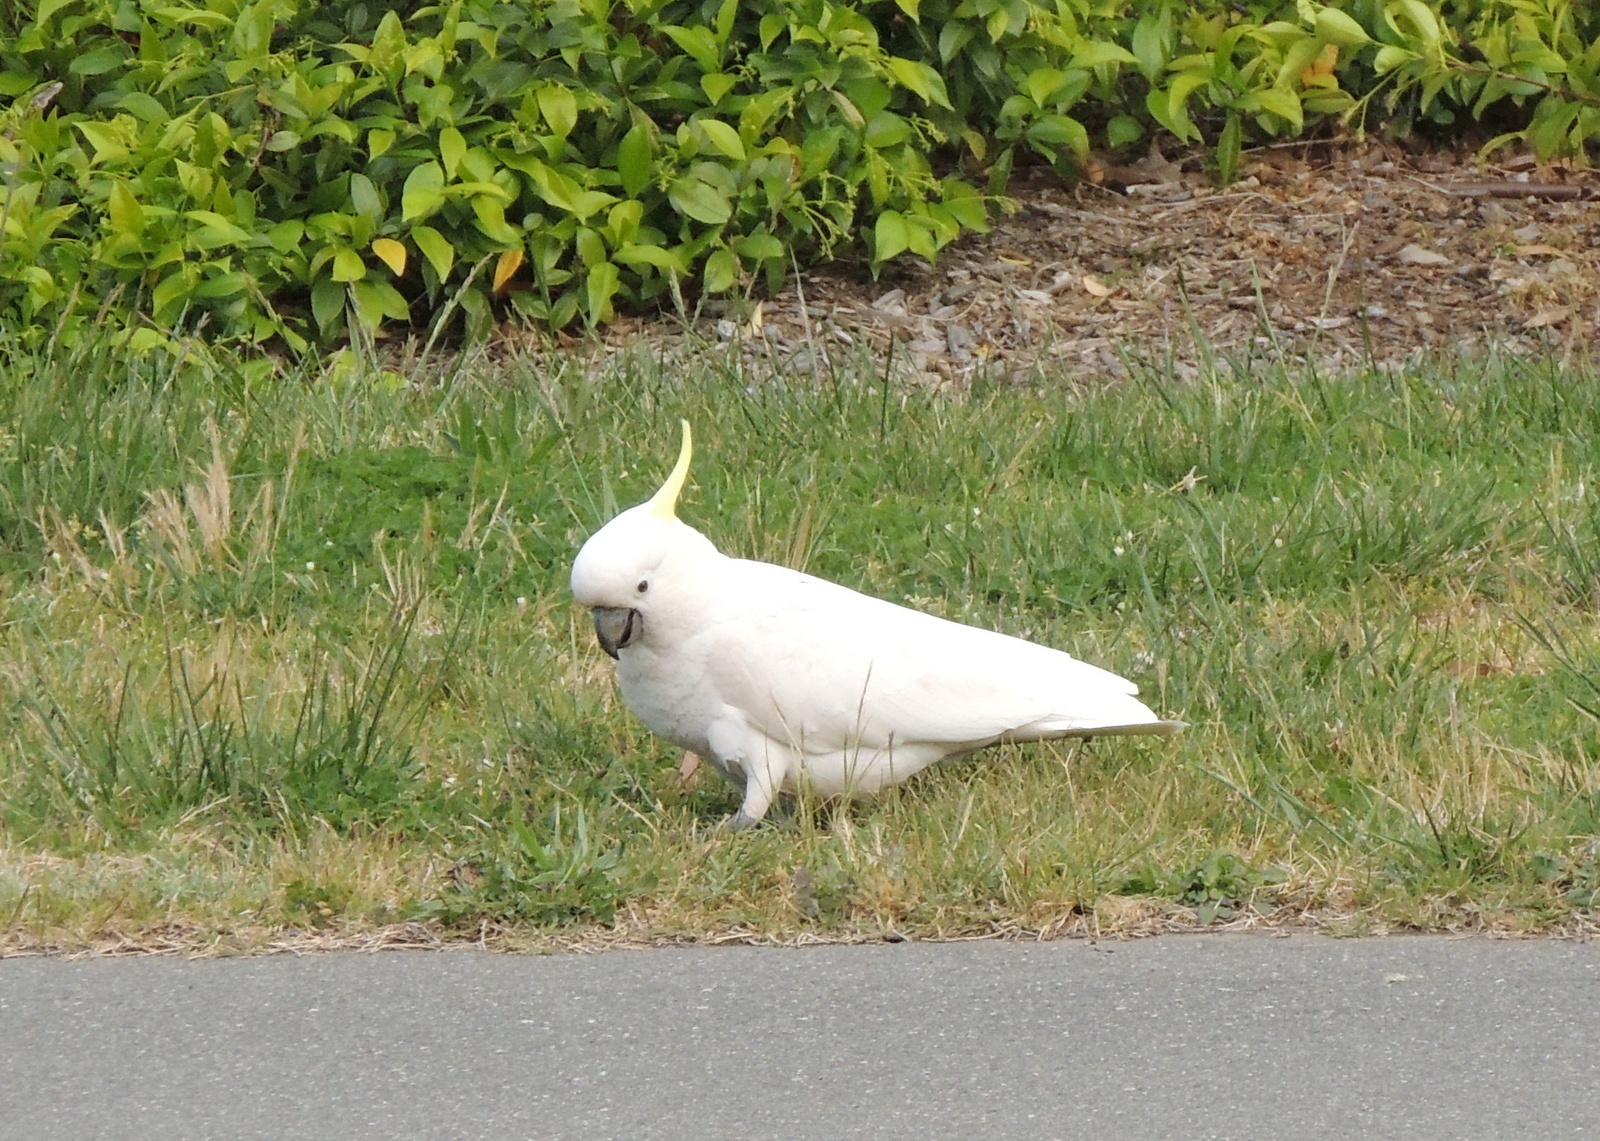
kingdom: Animalia
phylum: Chordata
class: Aves
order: Psittaciformes
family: Psittacidae
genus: Cacatua
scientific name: Cacatua galerita
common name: Sulphur-crested cockatoo
